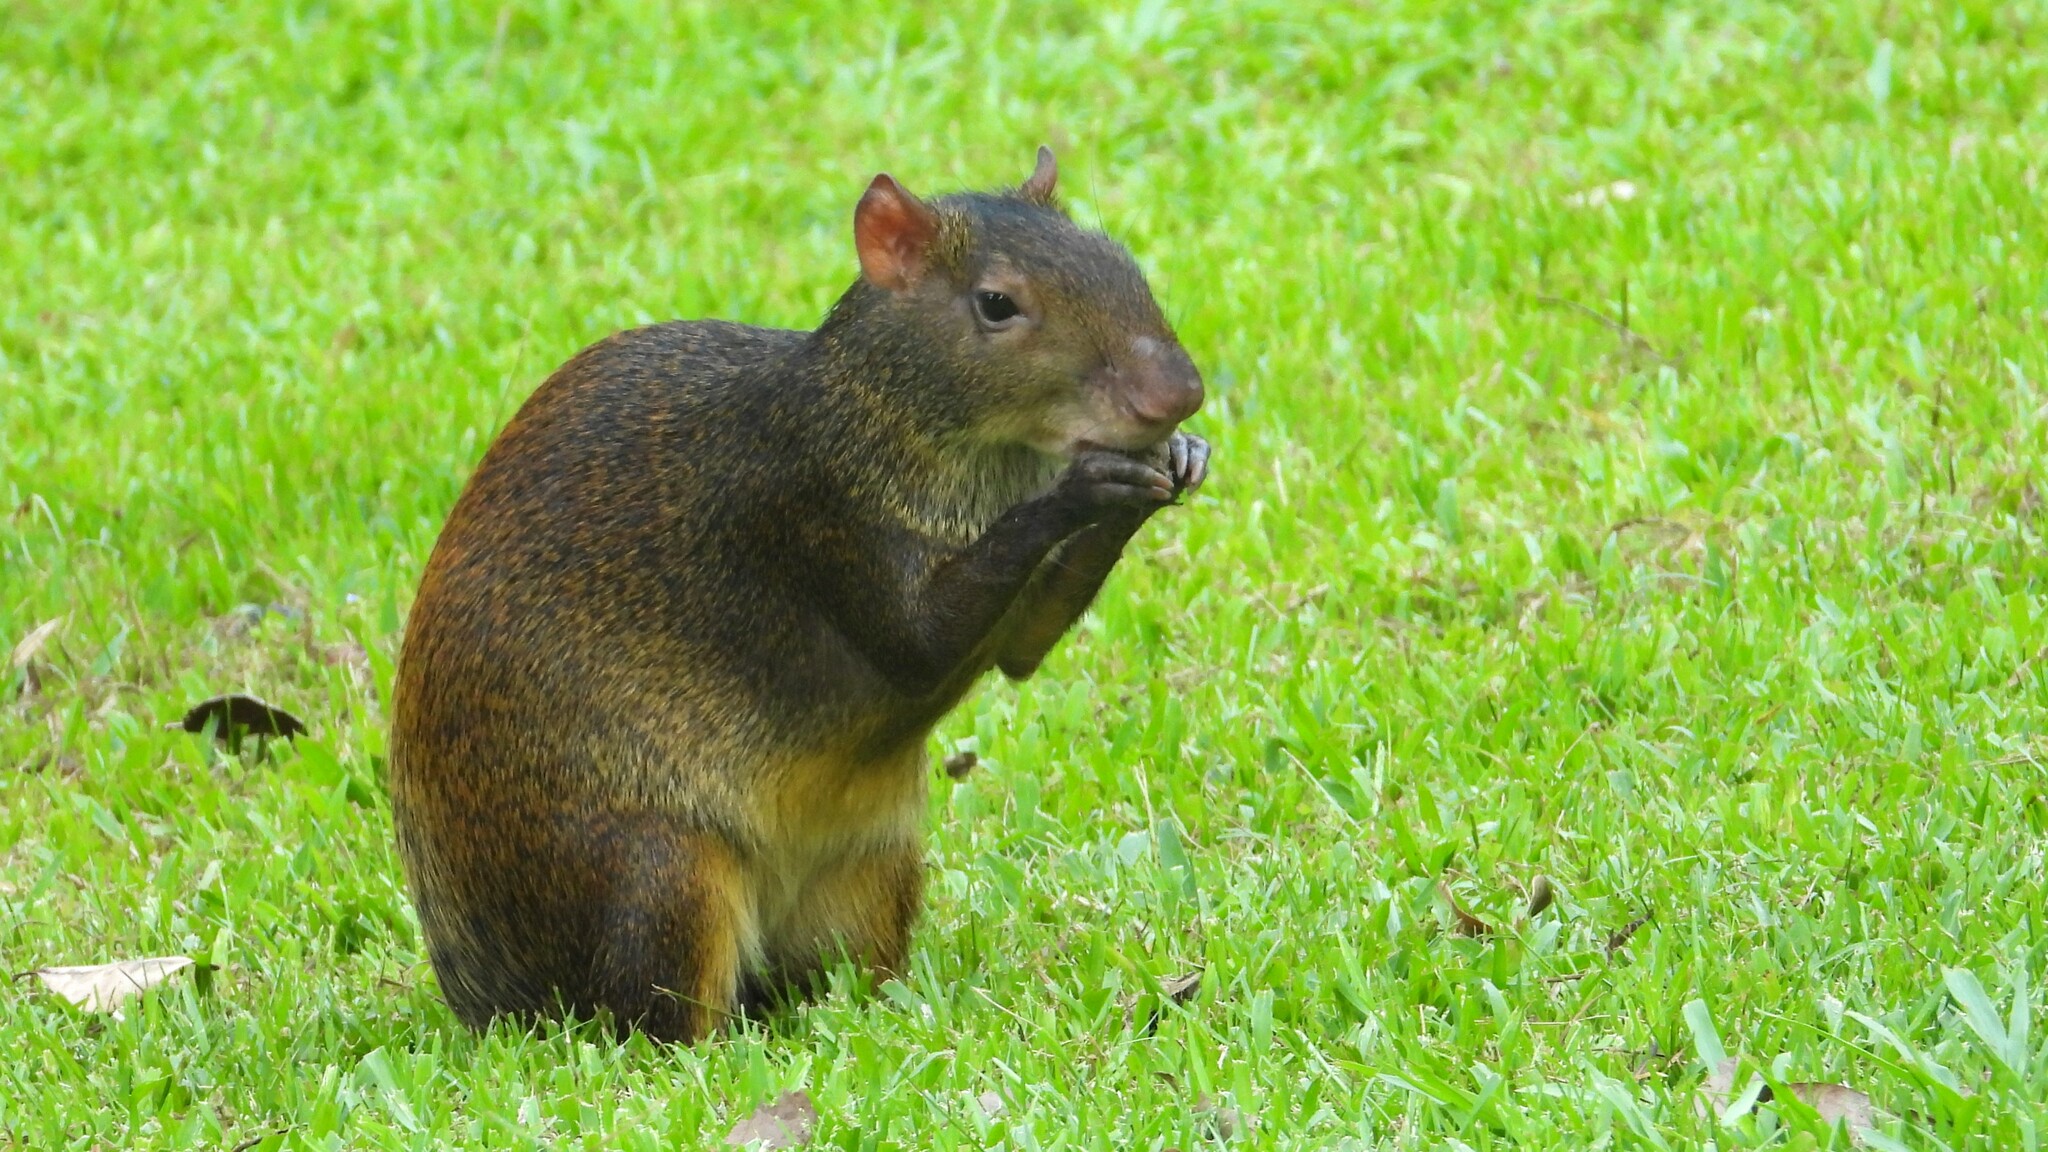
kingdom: Animalia
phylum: Chordata
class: Mammalia
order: Rodentia
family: Dasyproctidae
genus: Dasyprocta
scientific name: Dasyprocta punctata
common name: Central american agouti
